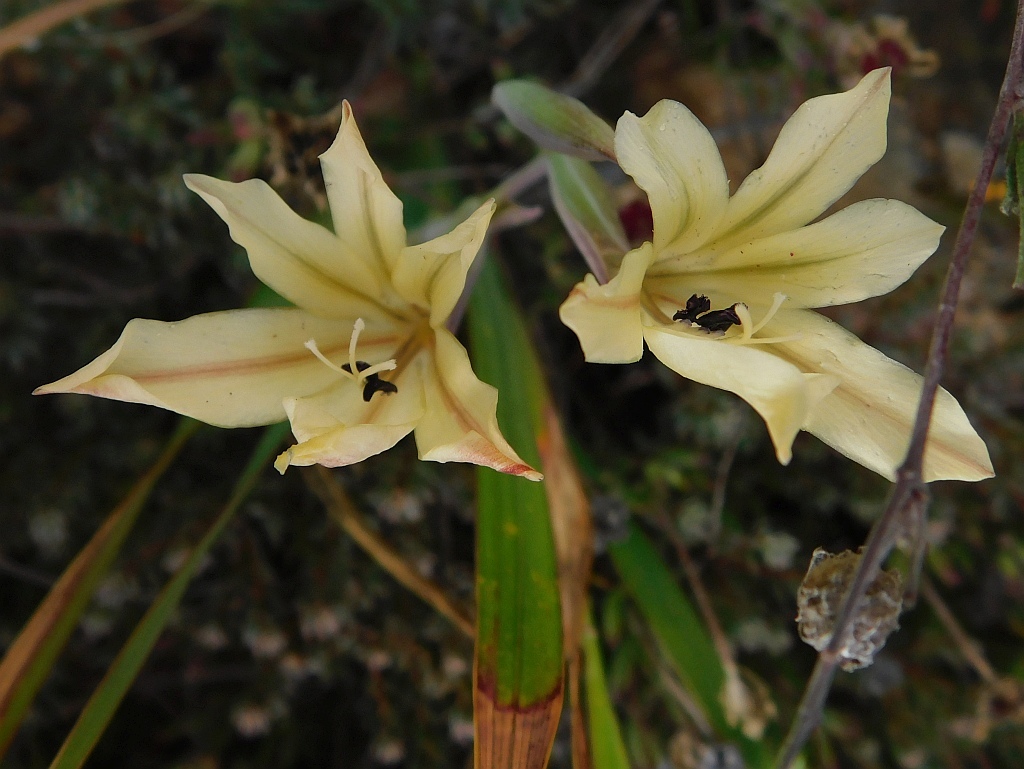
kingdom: Plantae
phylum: Tracheophyta
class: Liliopsida
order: Asparagales
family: Iridaceae
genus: Gladiolus
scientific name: Gladiolus floribundus
